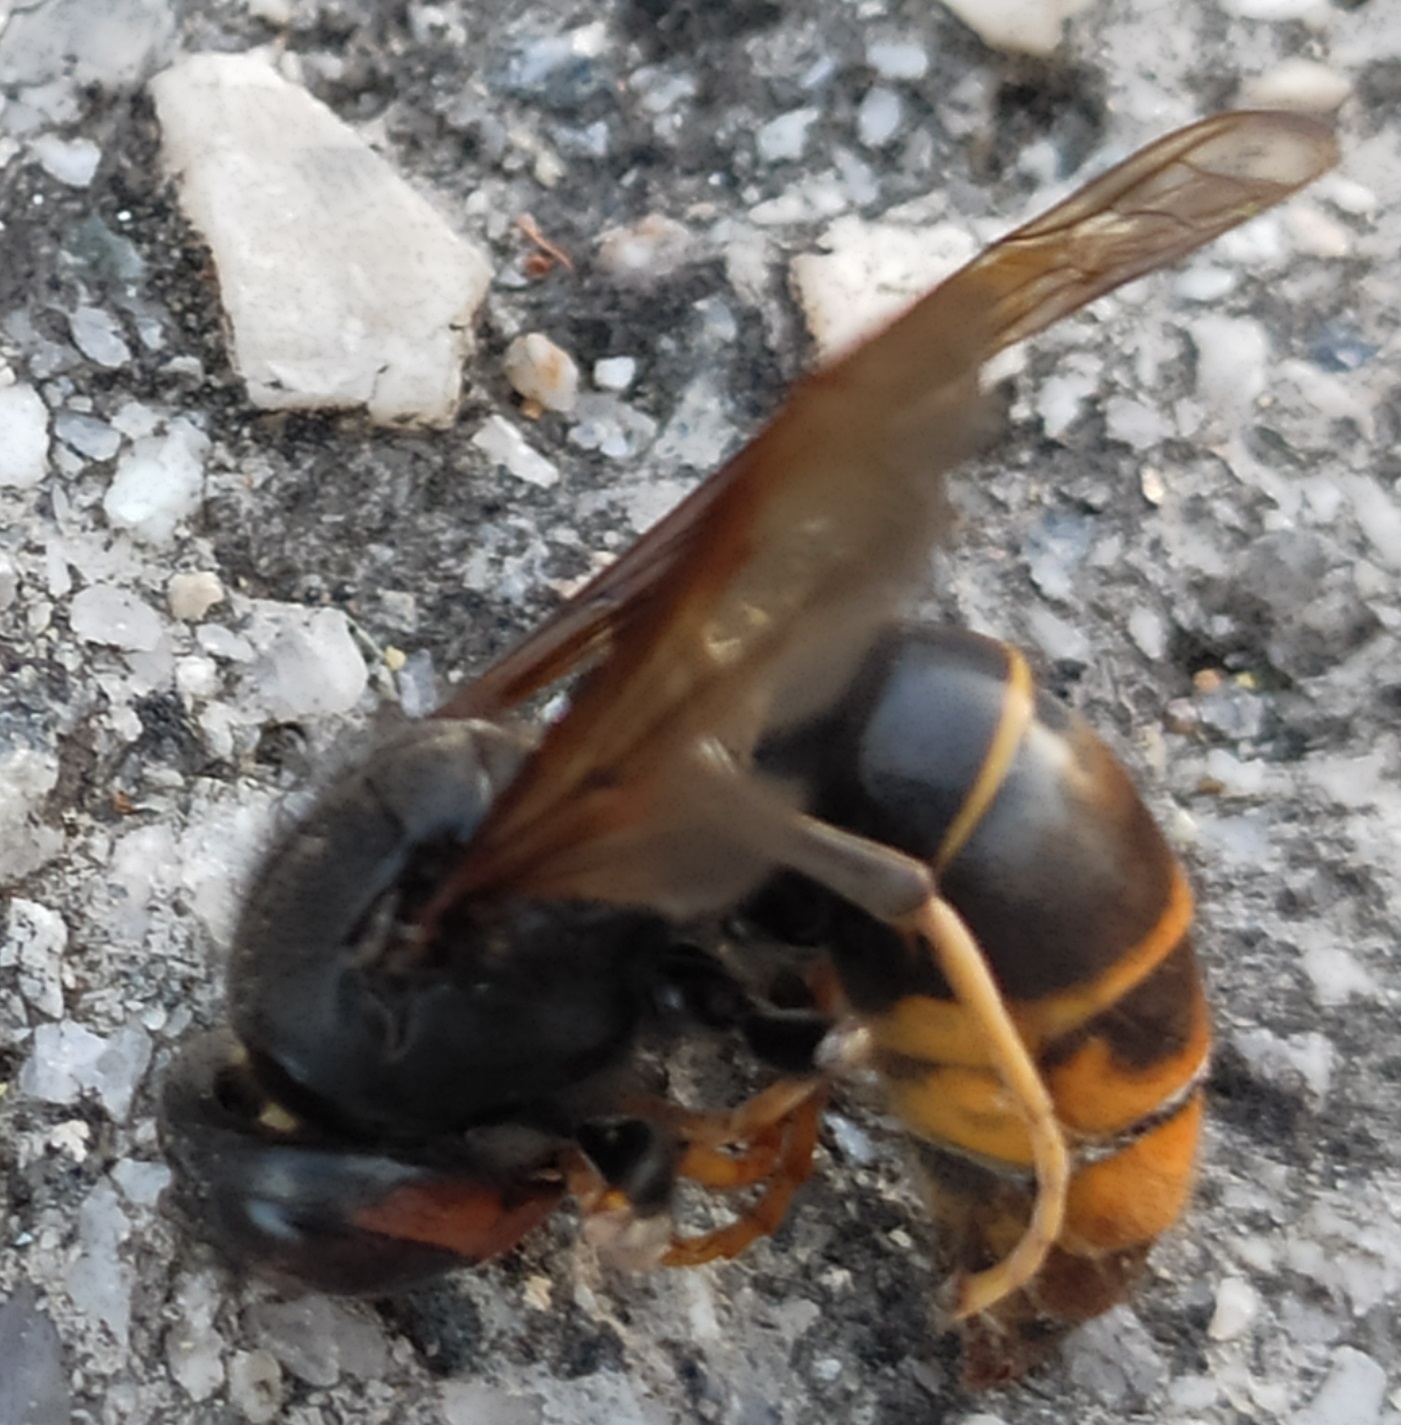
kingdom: Animalia
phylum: Arthropoda
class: Insecta
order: Hymenoptera
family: Vespidae
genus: Vespa
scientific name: Vespa velutina
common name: Asian hornet
